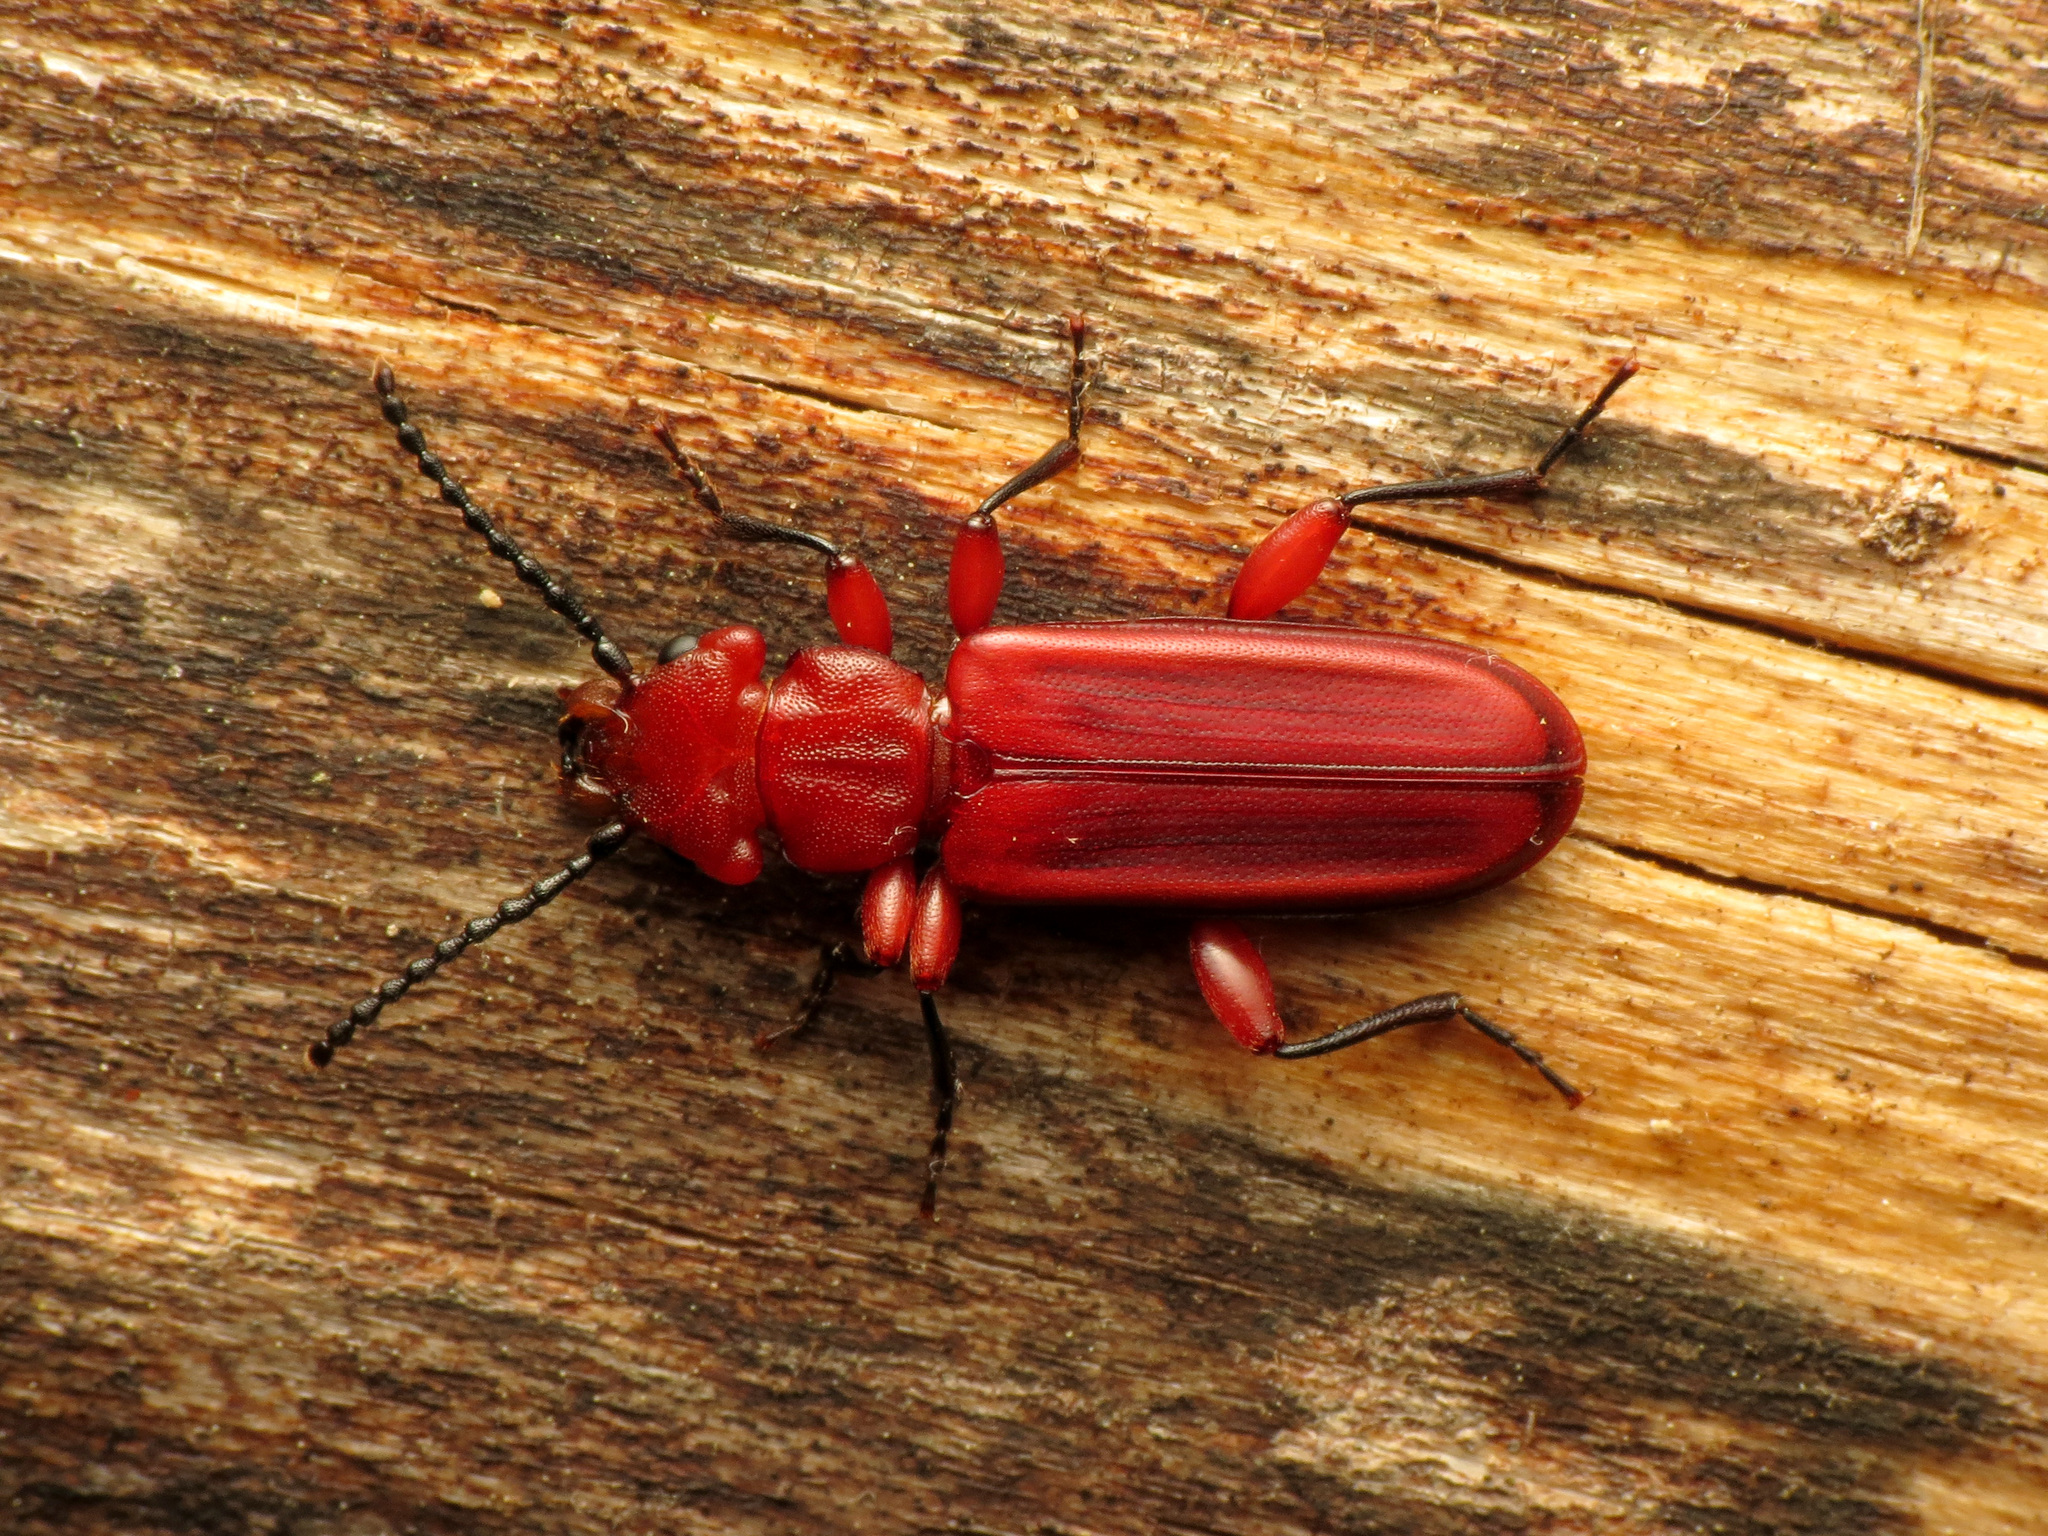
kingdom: Animalia
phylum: Arthropoda
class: Insecta
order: Coleoptera
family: Cucujidae
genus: Cucujus
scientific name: Cucujus clavipes
